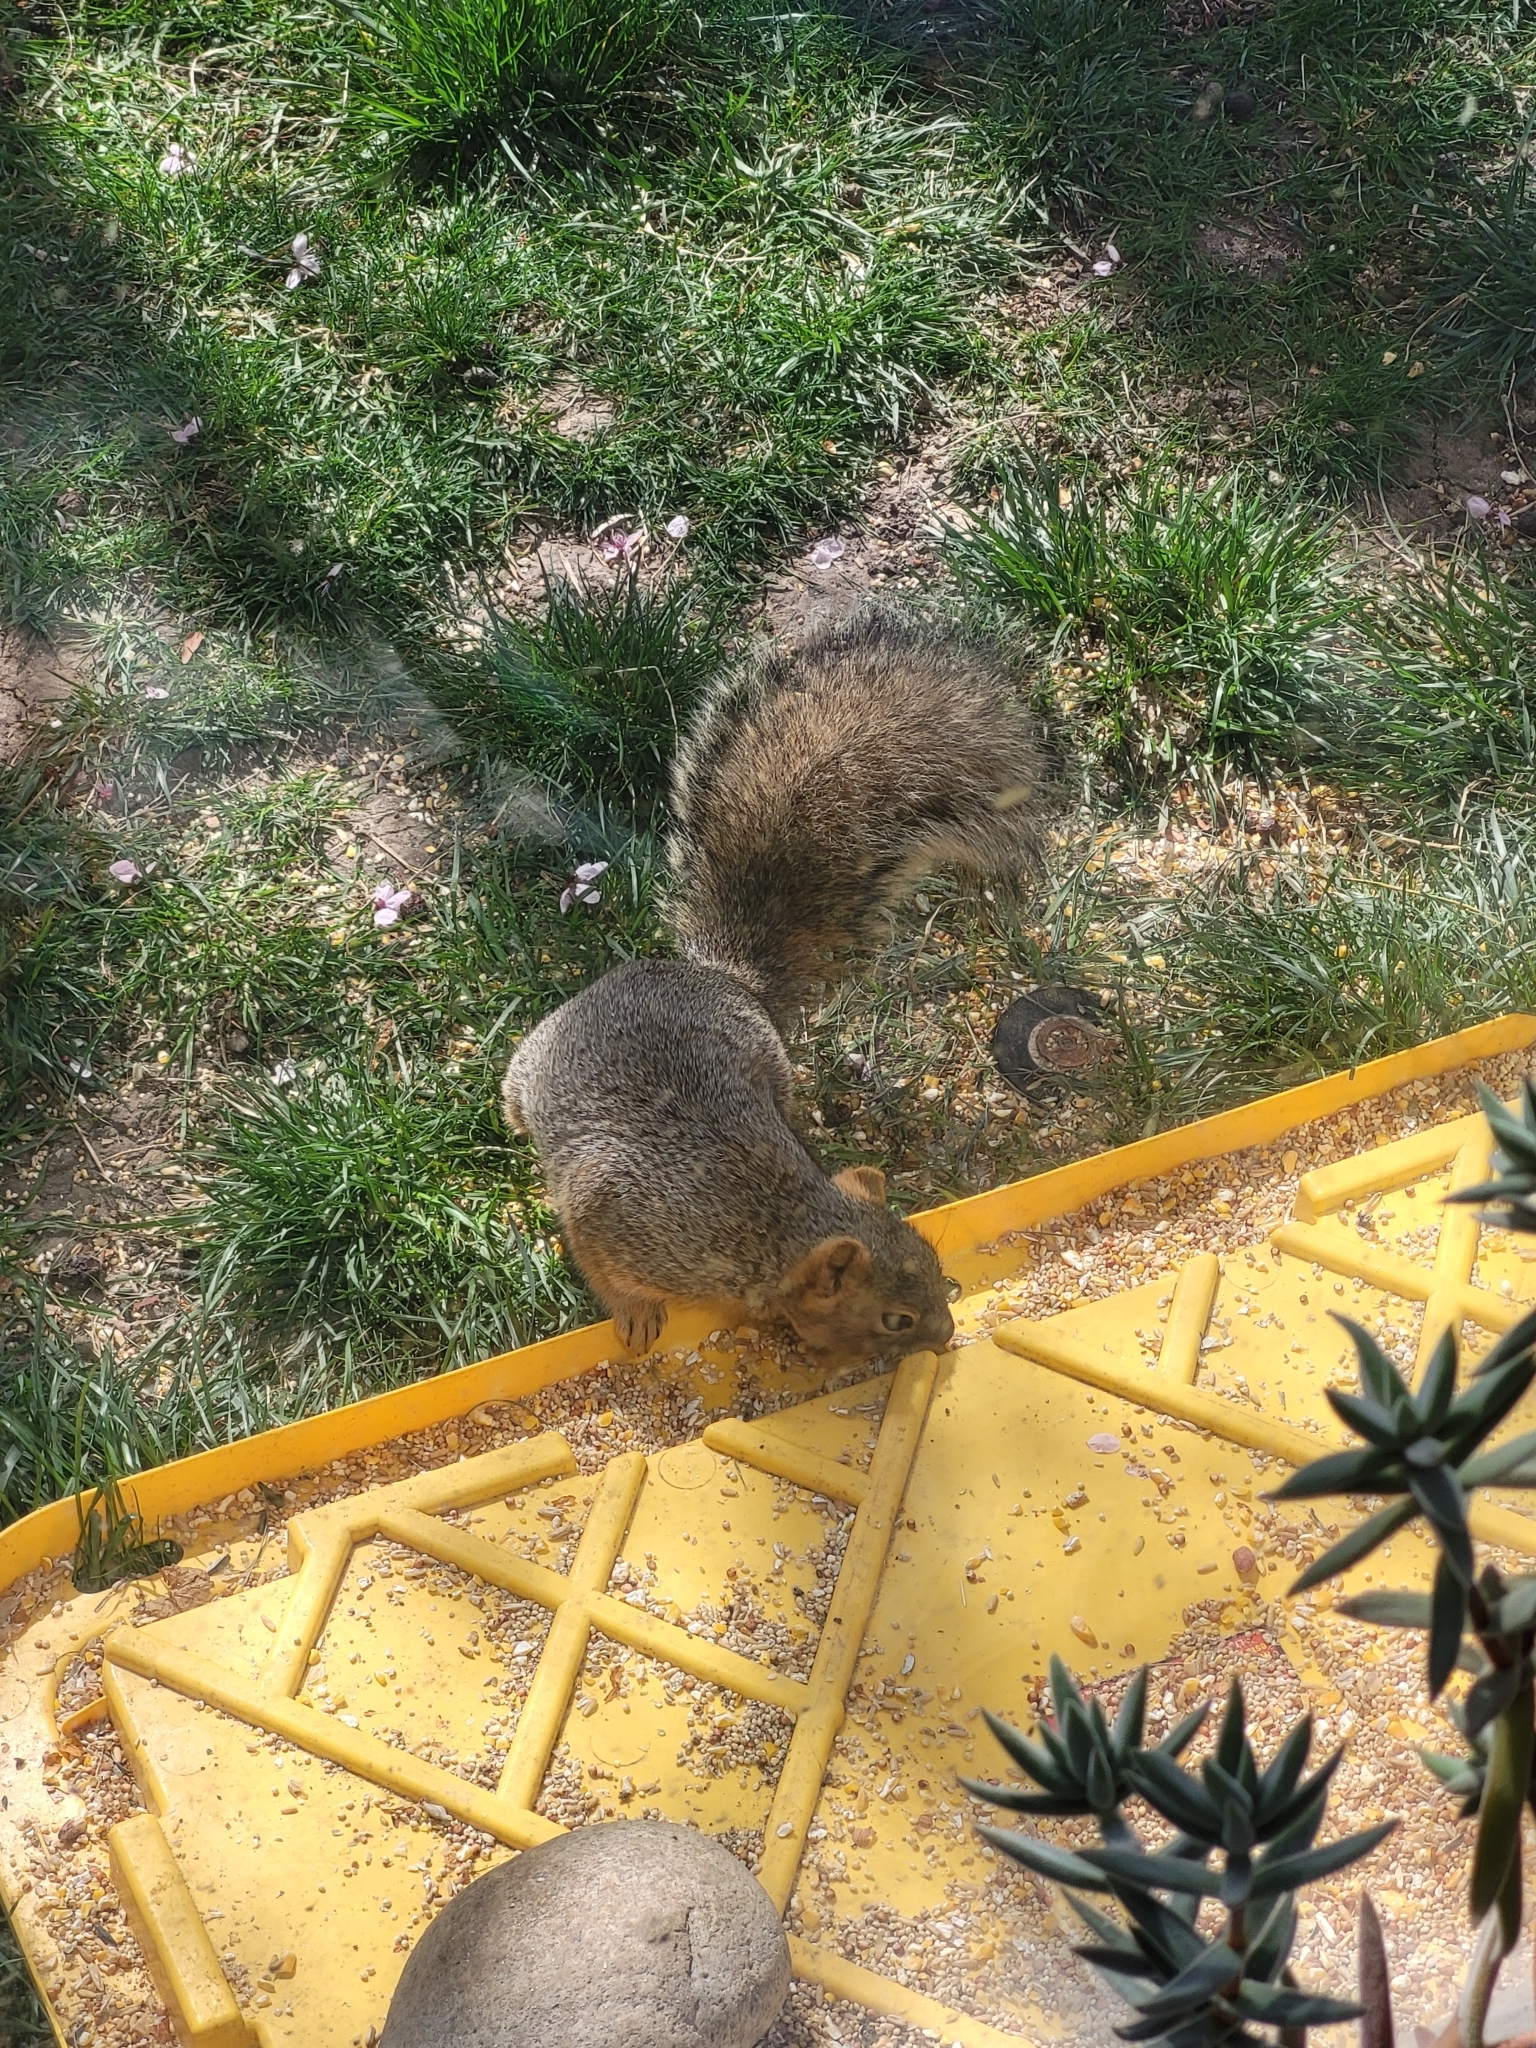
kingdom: Animalia
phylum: Chordata
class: Mammalia
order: Rodentia
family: Sciuridae
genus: Sciurus
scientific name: Sciurus niger
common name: Fox squirrel
